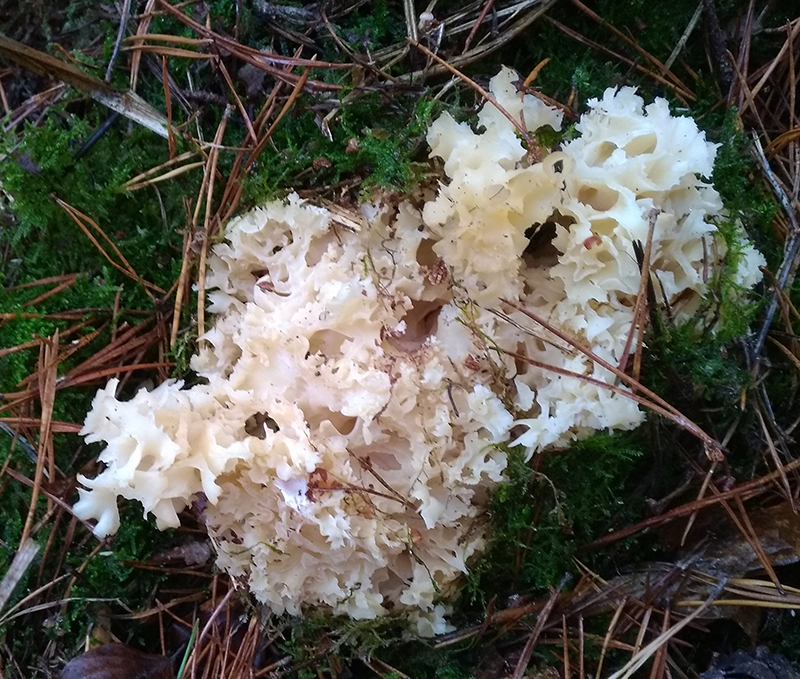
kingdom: Fungi
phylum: Basidiomycota
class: Agaricomycetes
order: Polyporales
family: Sparassidaceae
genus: Sparassis
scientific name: Sparassis crispa
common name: Brain fungus
